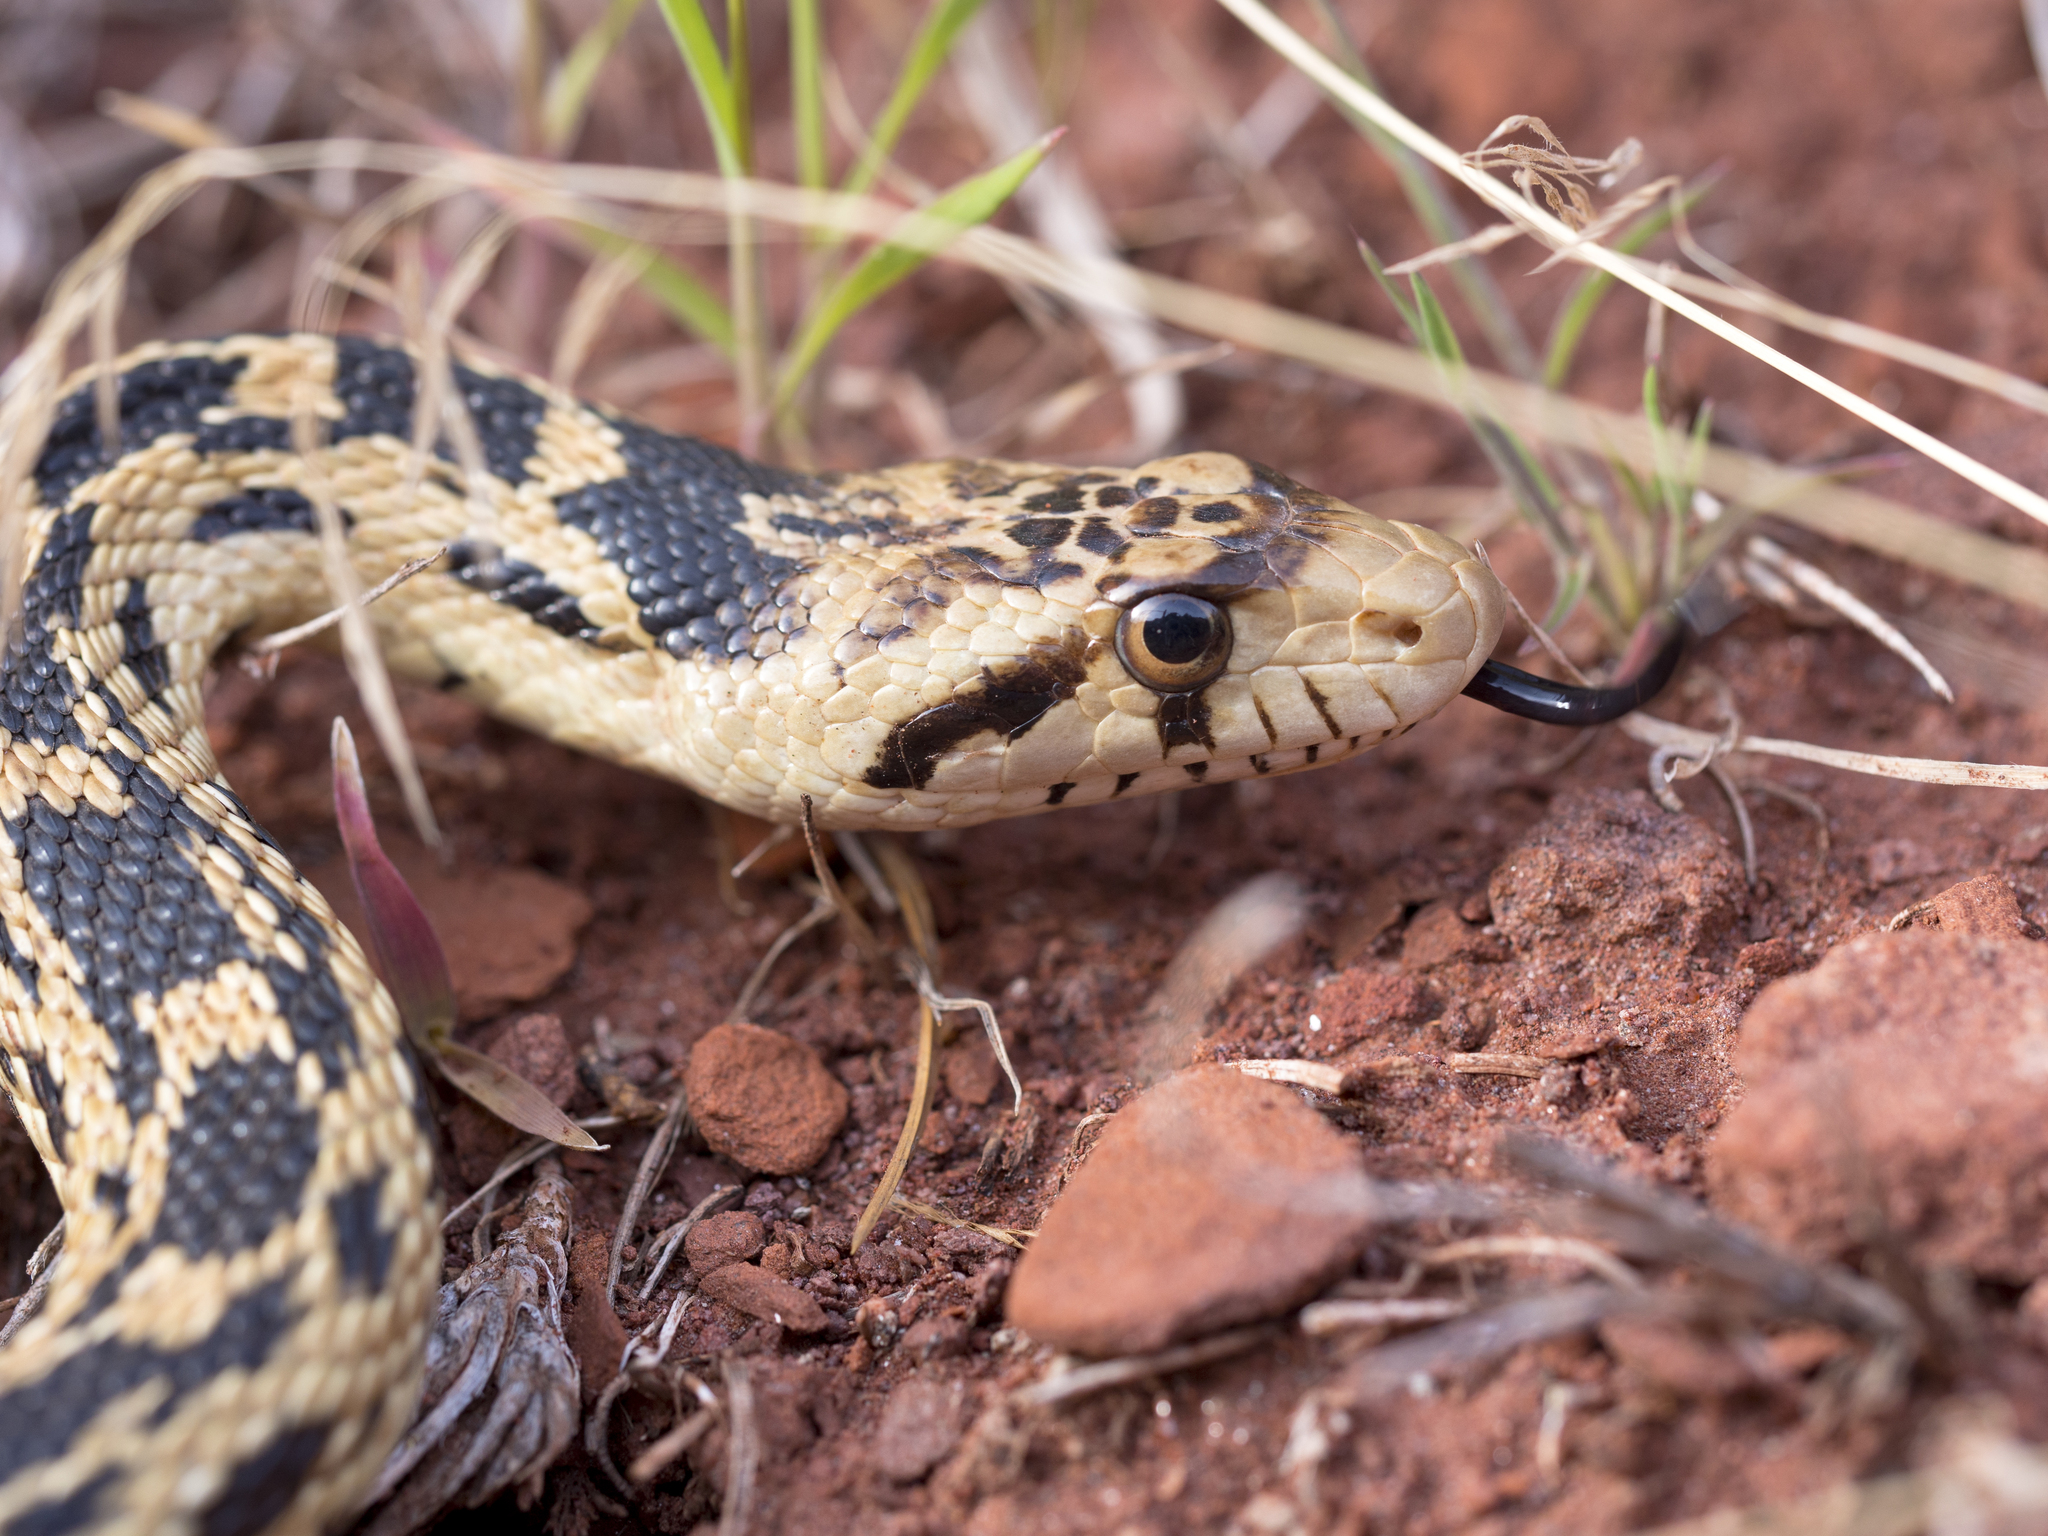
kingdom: Animalia
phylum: Chordata
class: Squamata
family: Colubridae
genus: Pituophis
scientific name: Pituophis catenifer
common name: Gopher snake
